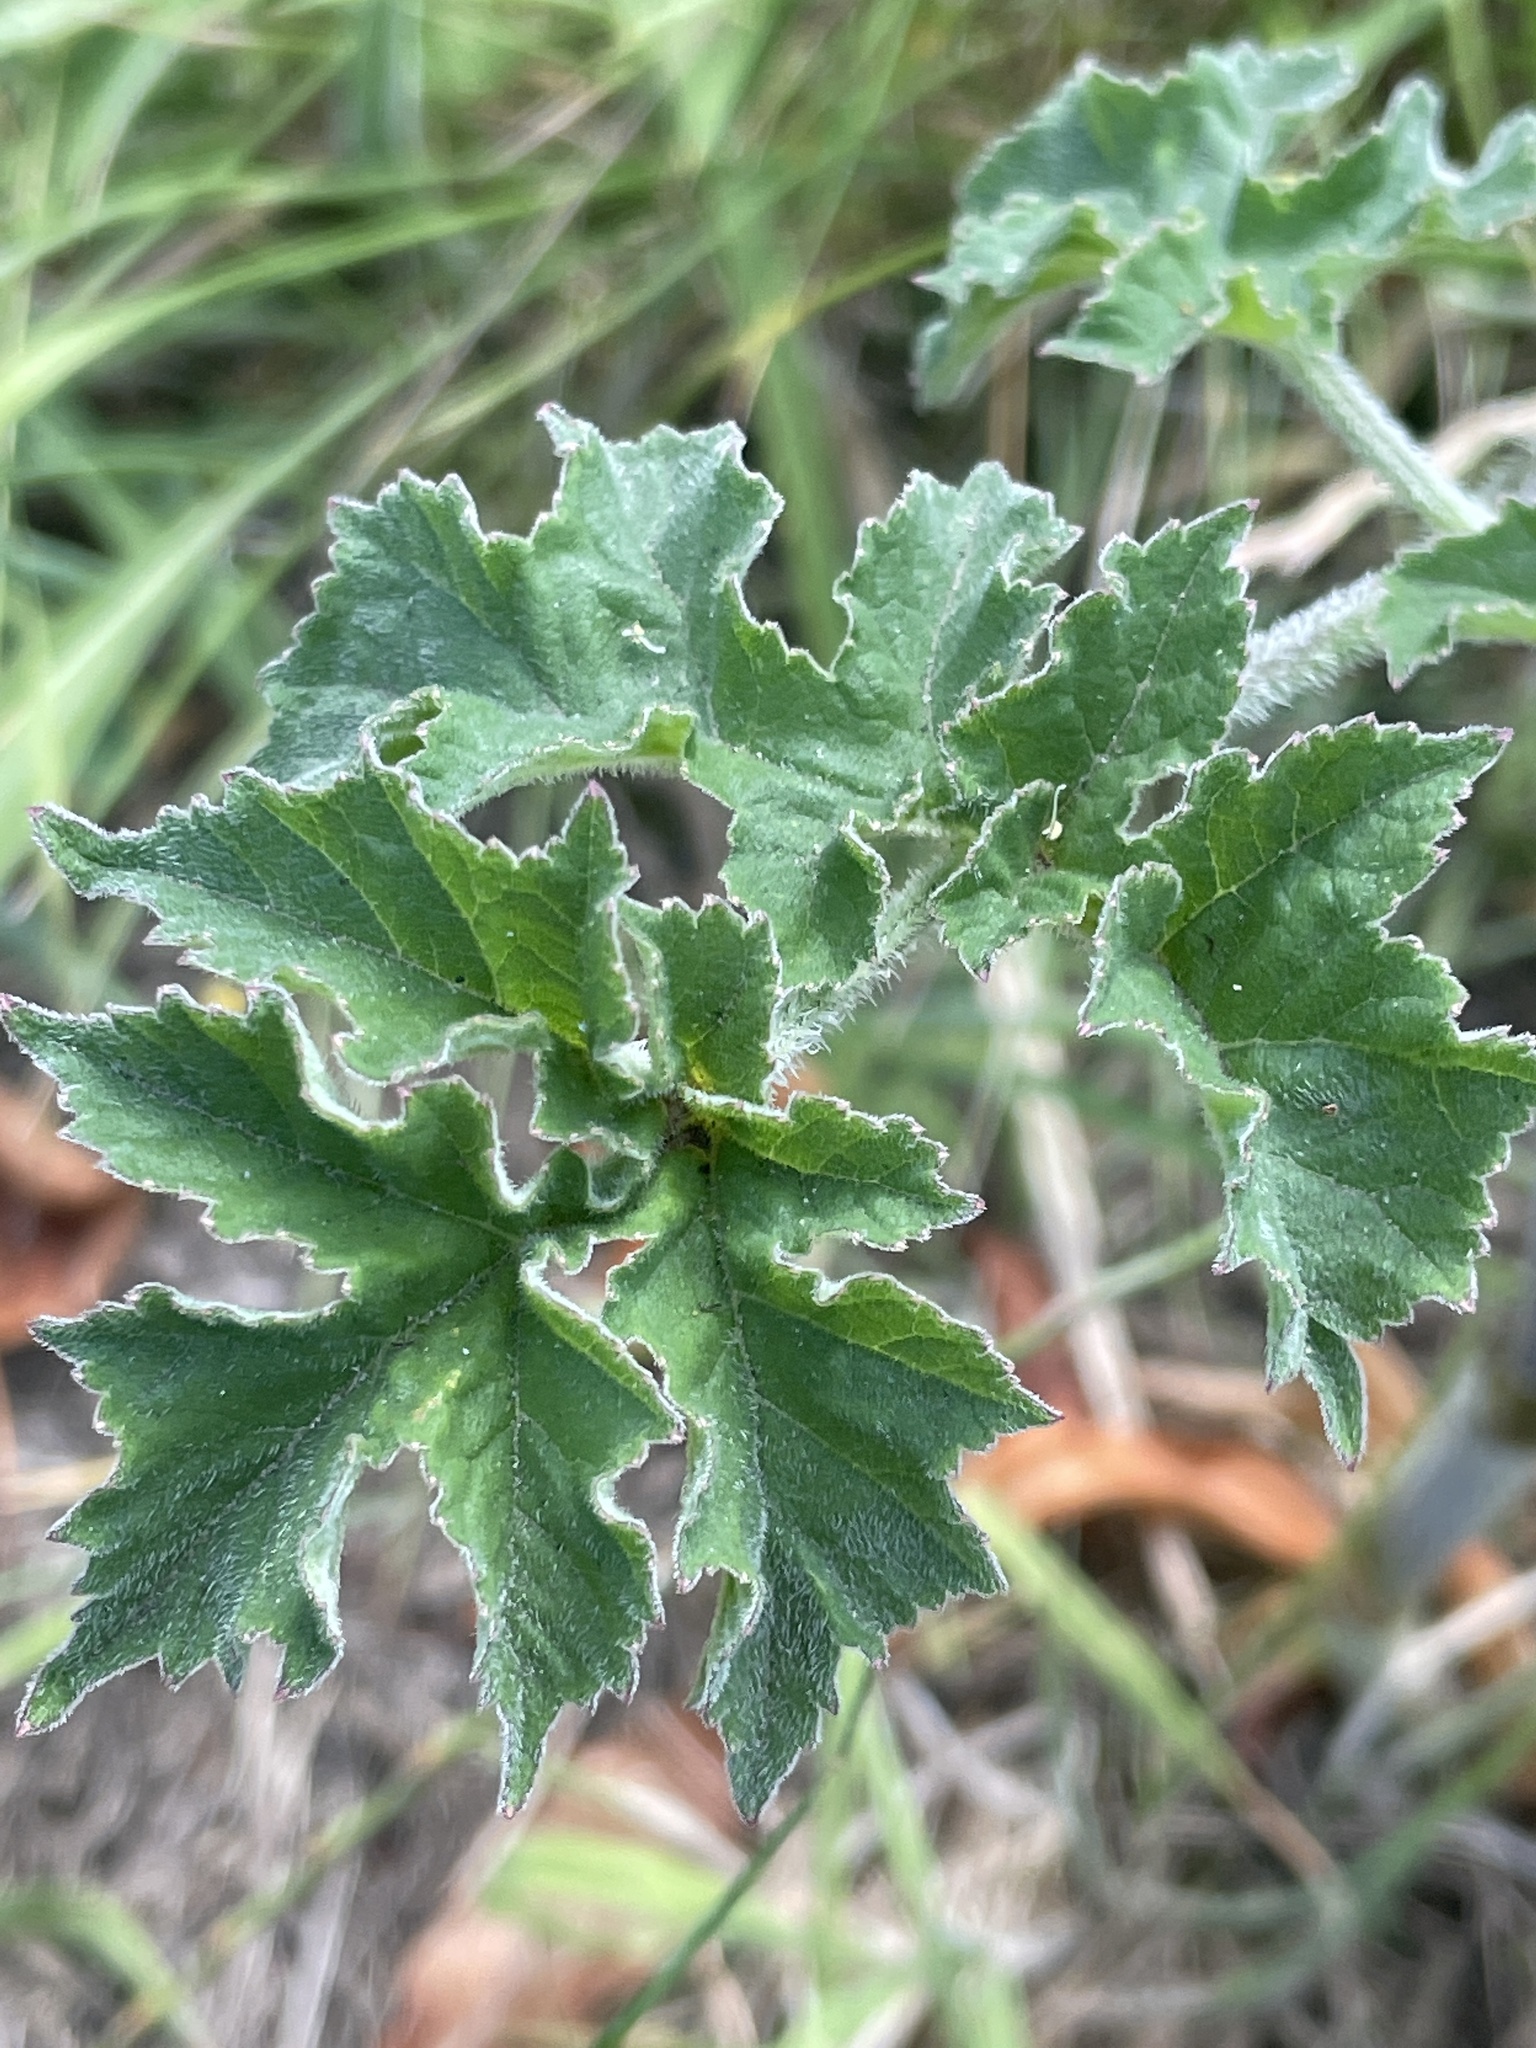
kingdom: Plantae
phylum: Tracheophyta
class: Magnoliopsida
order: Apiales
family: Apiaceae
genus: Heracleum
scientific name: Heracleum sphondylium
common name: Hogweed
